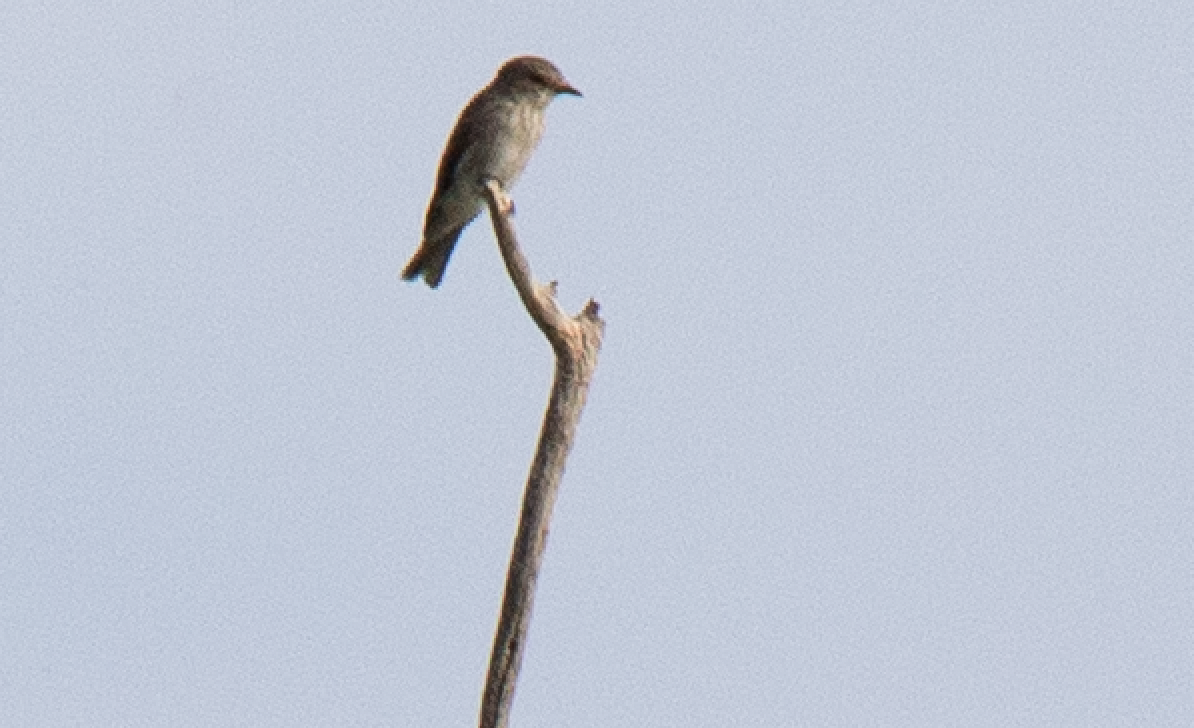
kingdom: Animalia
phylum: Chordata
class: Aves
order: Passeriformes
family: Muscicapidae
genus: Muscicapa
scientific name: Muscicapa striata
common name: Spotted flycatcher
